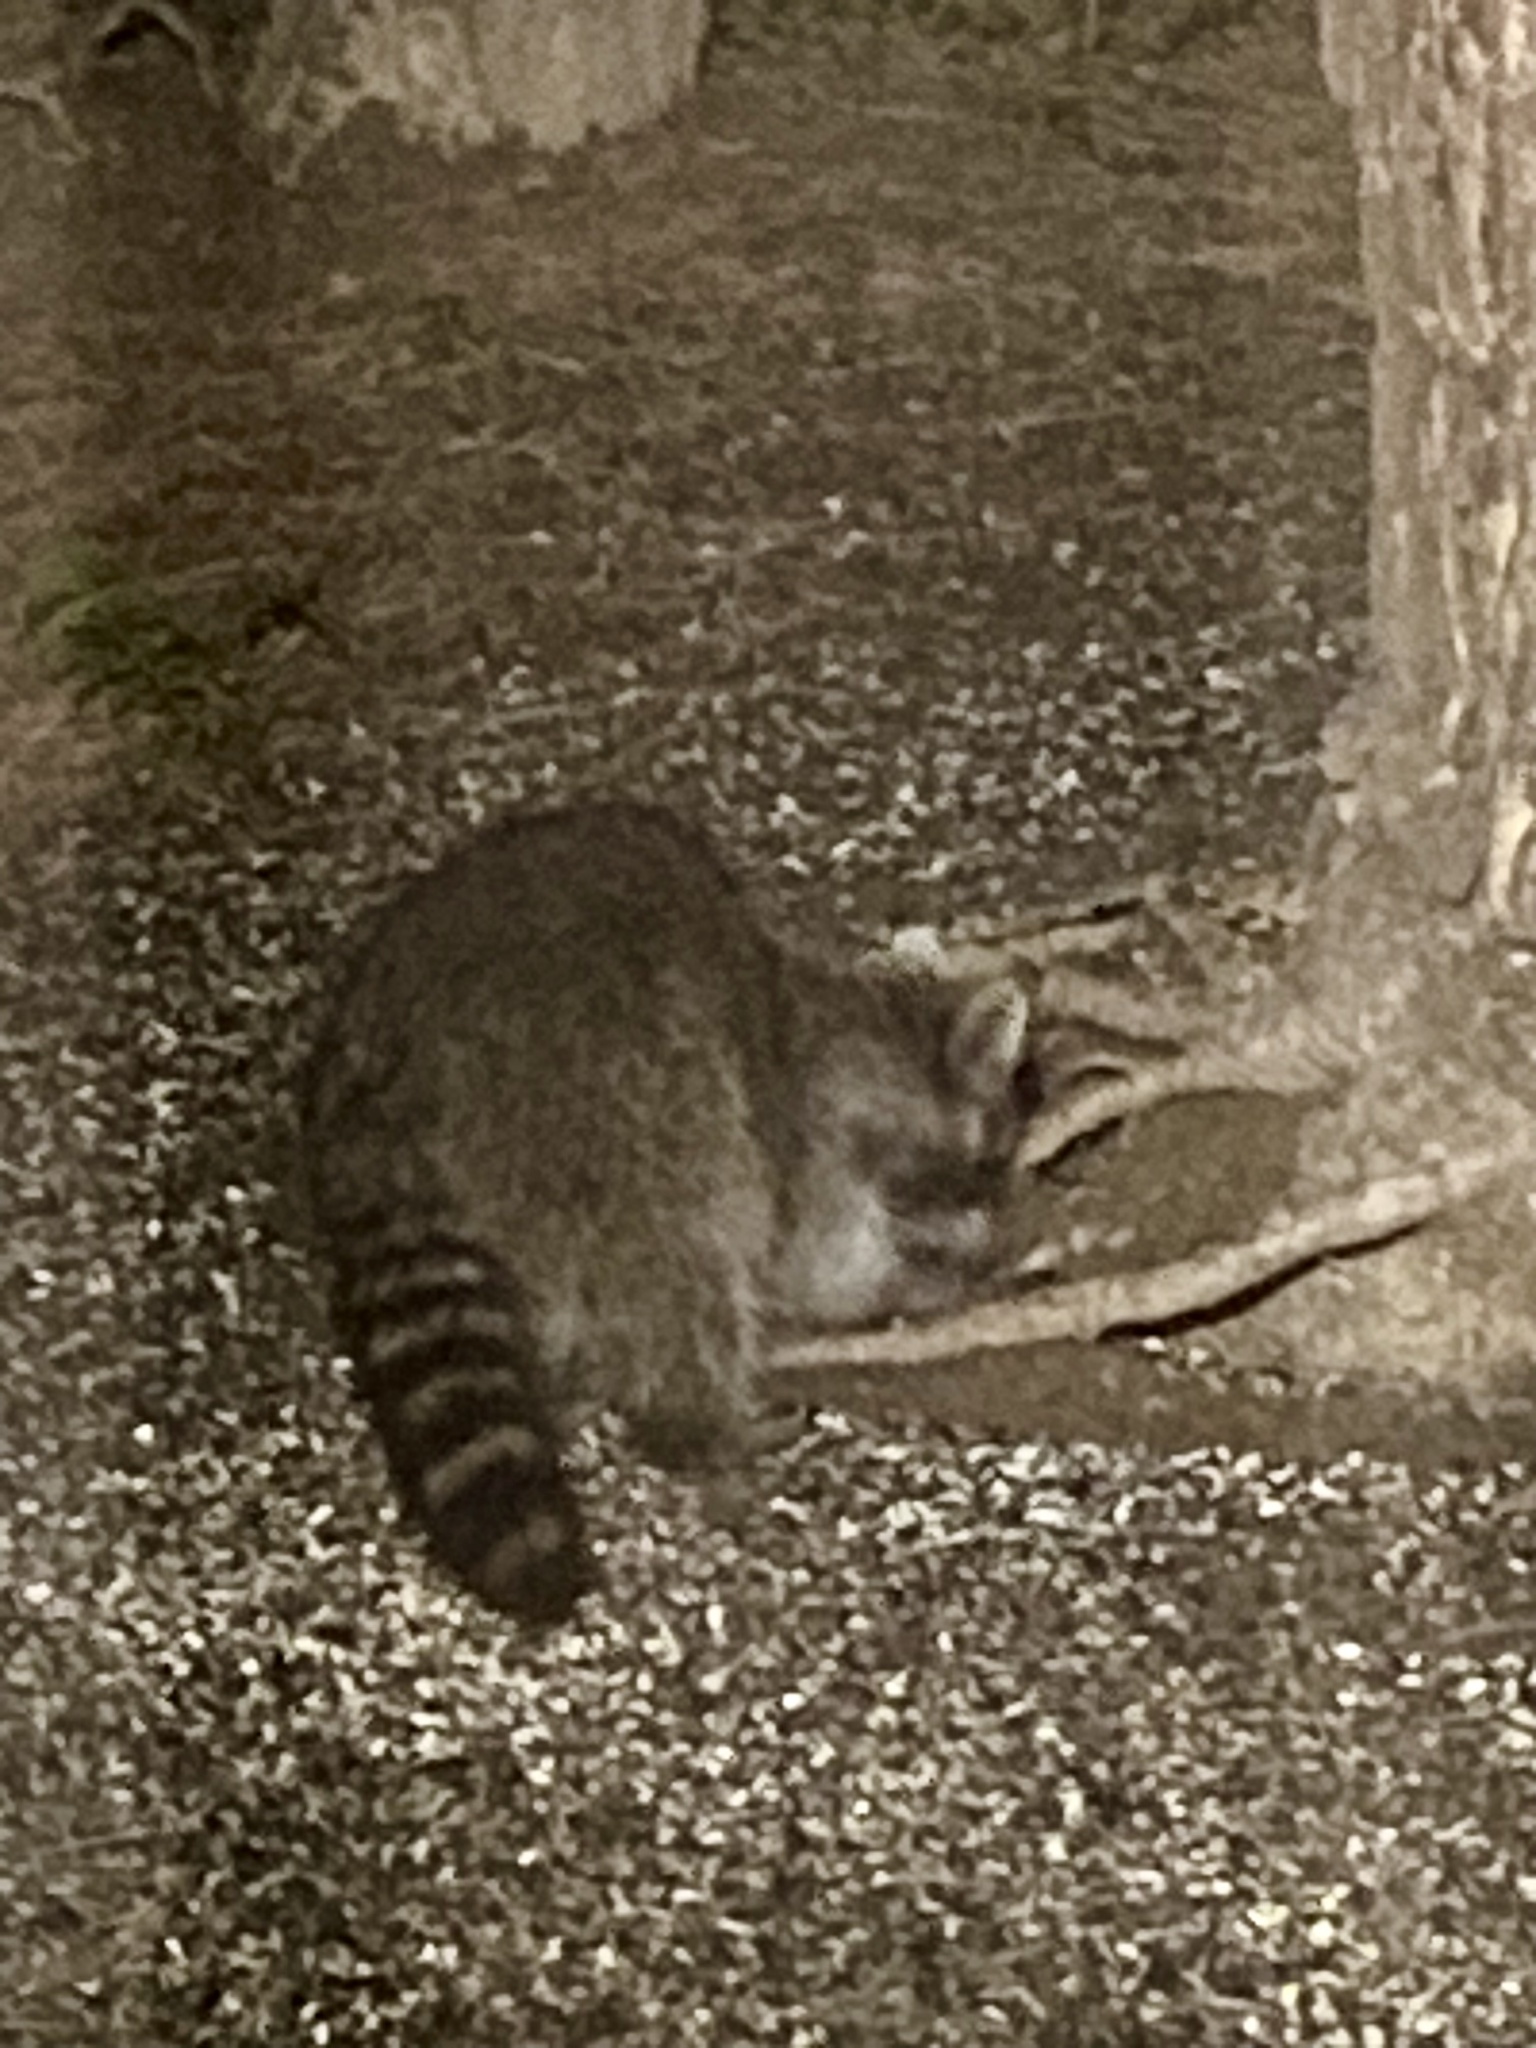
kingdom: Animalia
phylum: Chordata
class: Mammalia
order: Carnivora
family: Procyonidae
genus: Procyon
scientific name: Procyon lotor
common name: Raccoon
